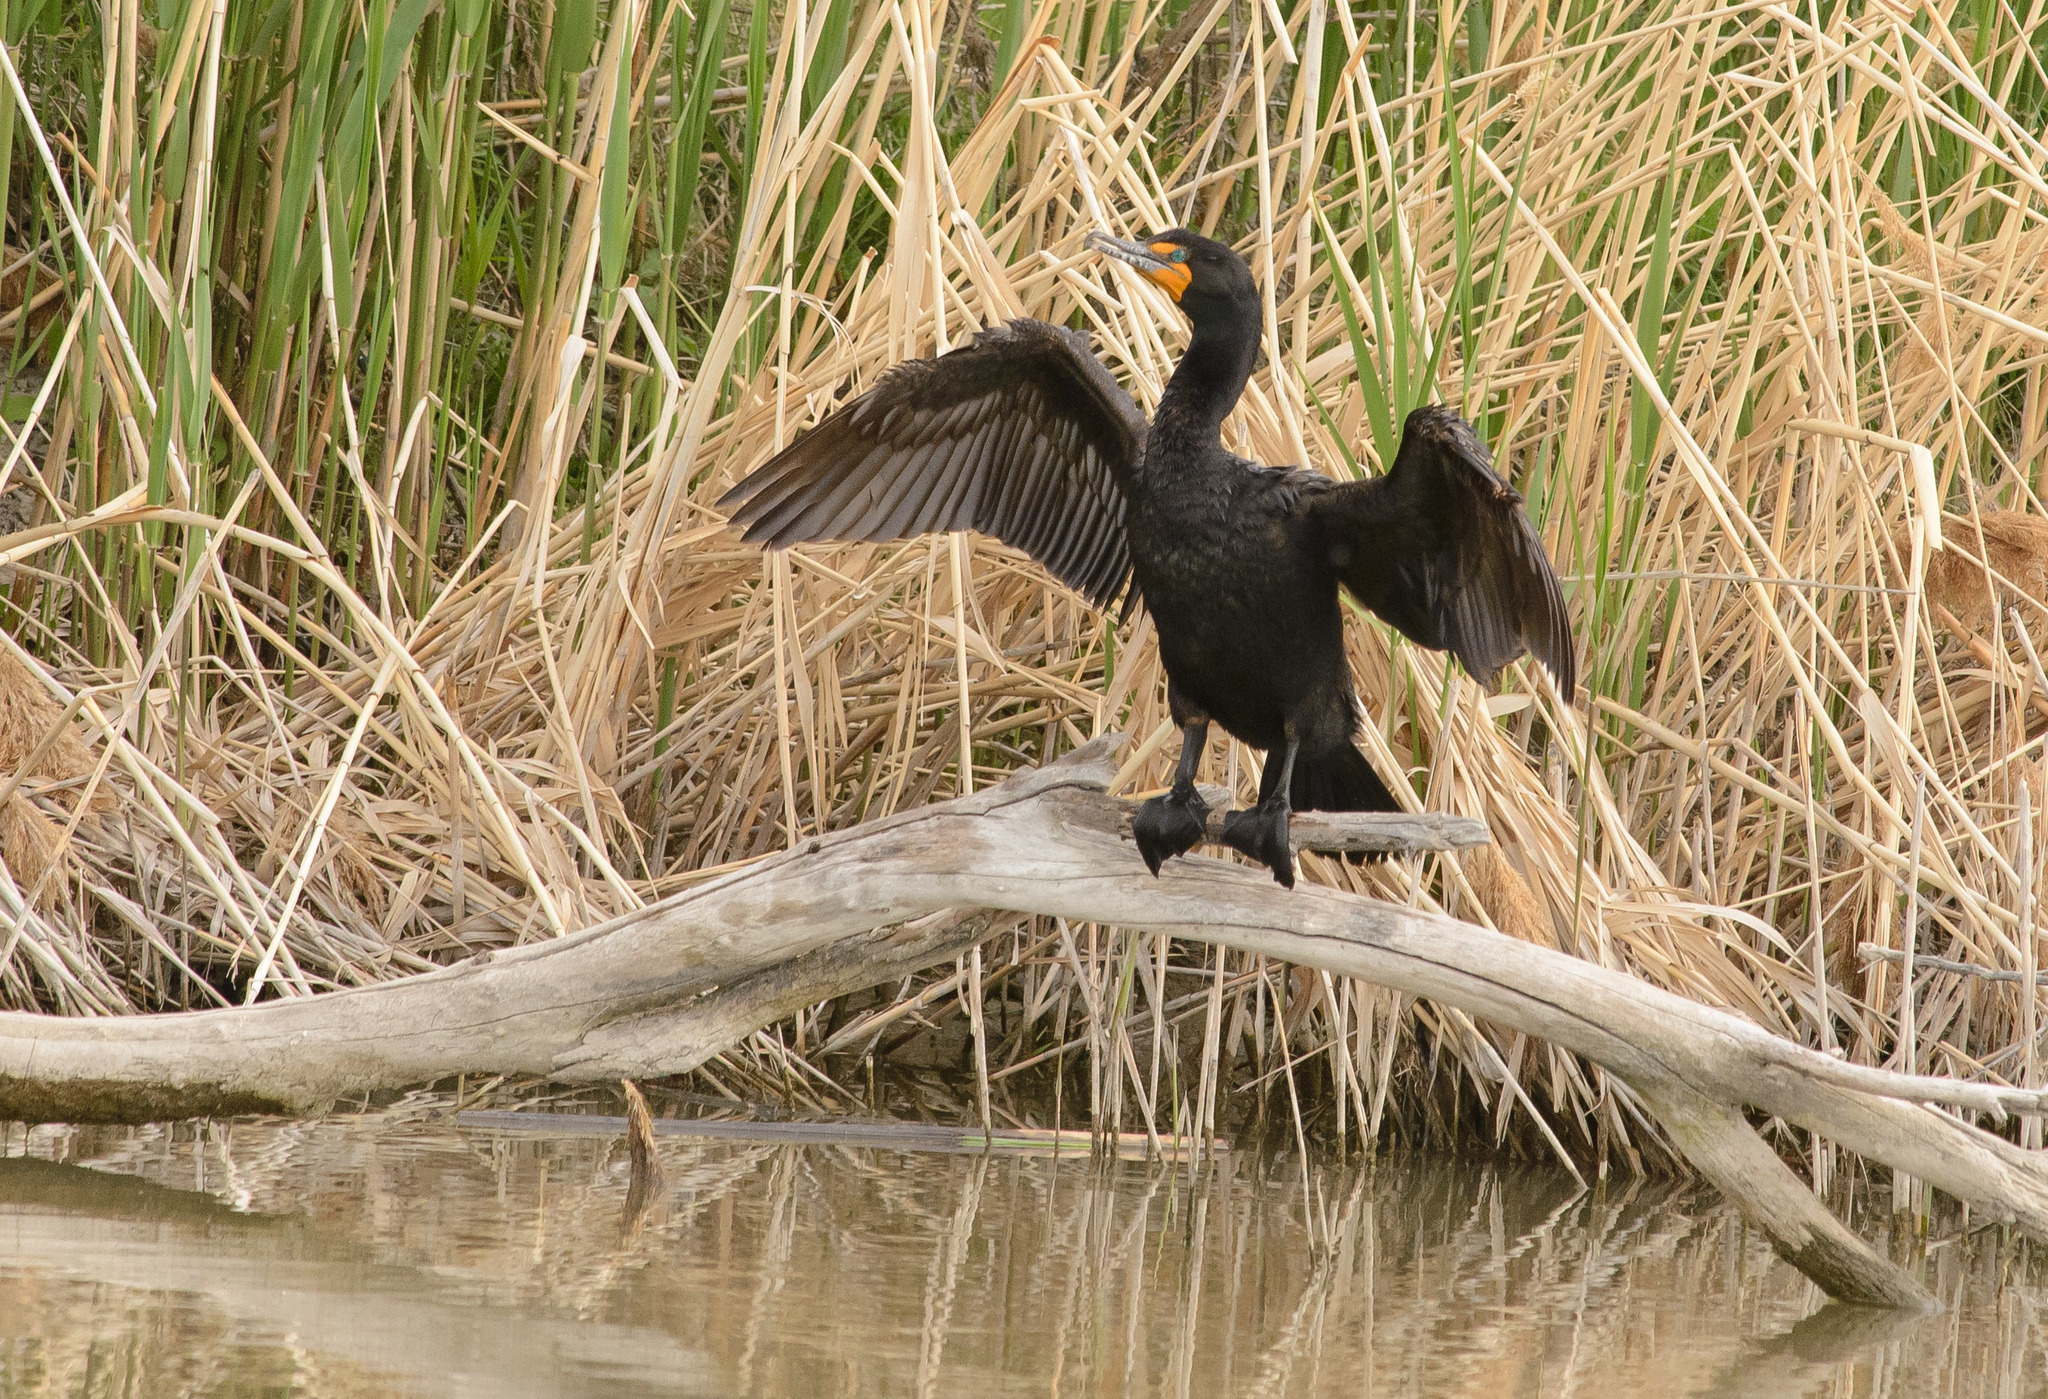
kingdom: Animalia
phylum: Chordata
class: Aves
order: Suliformes
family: Phalacrocoracidae
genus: Phalacrocorax
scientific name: Phalacrocorax auritus
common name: Double-crested cormorant
